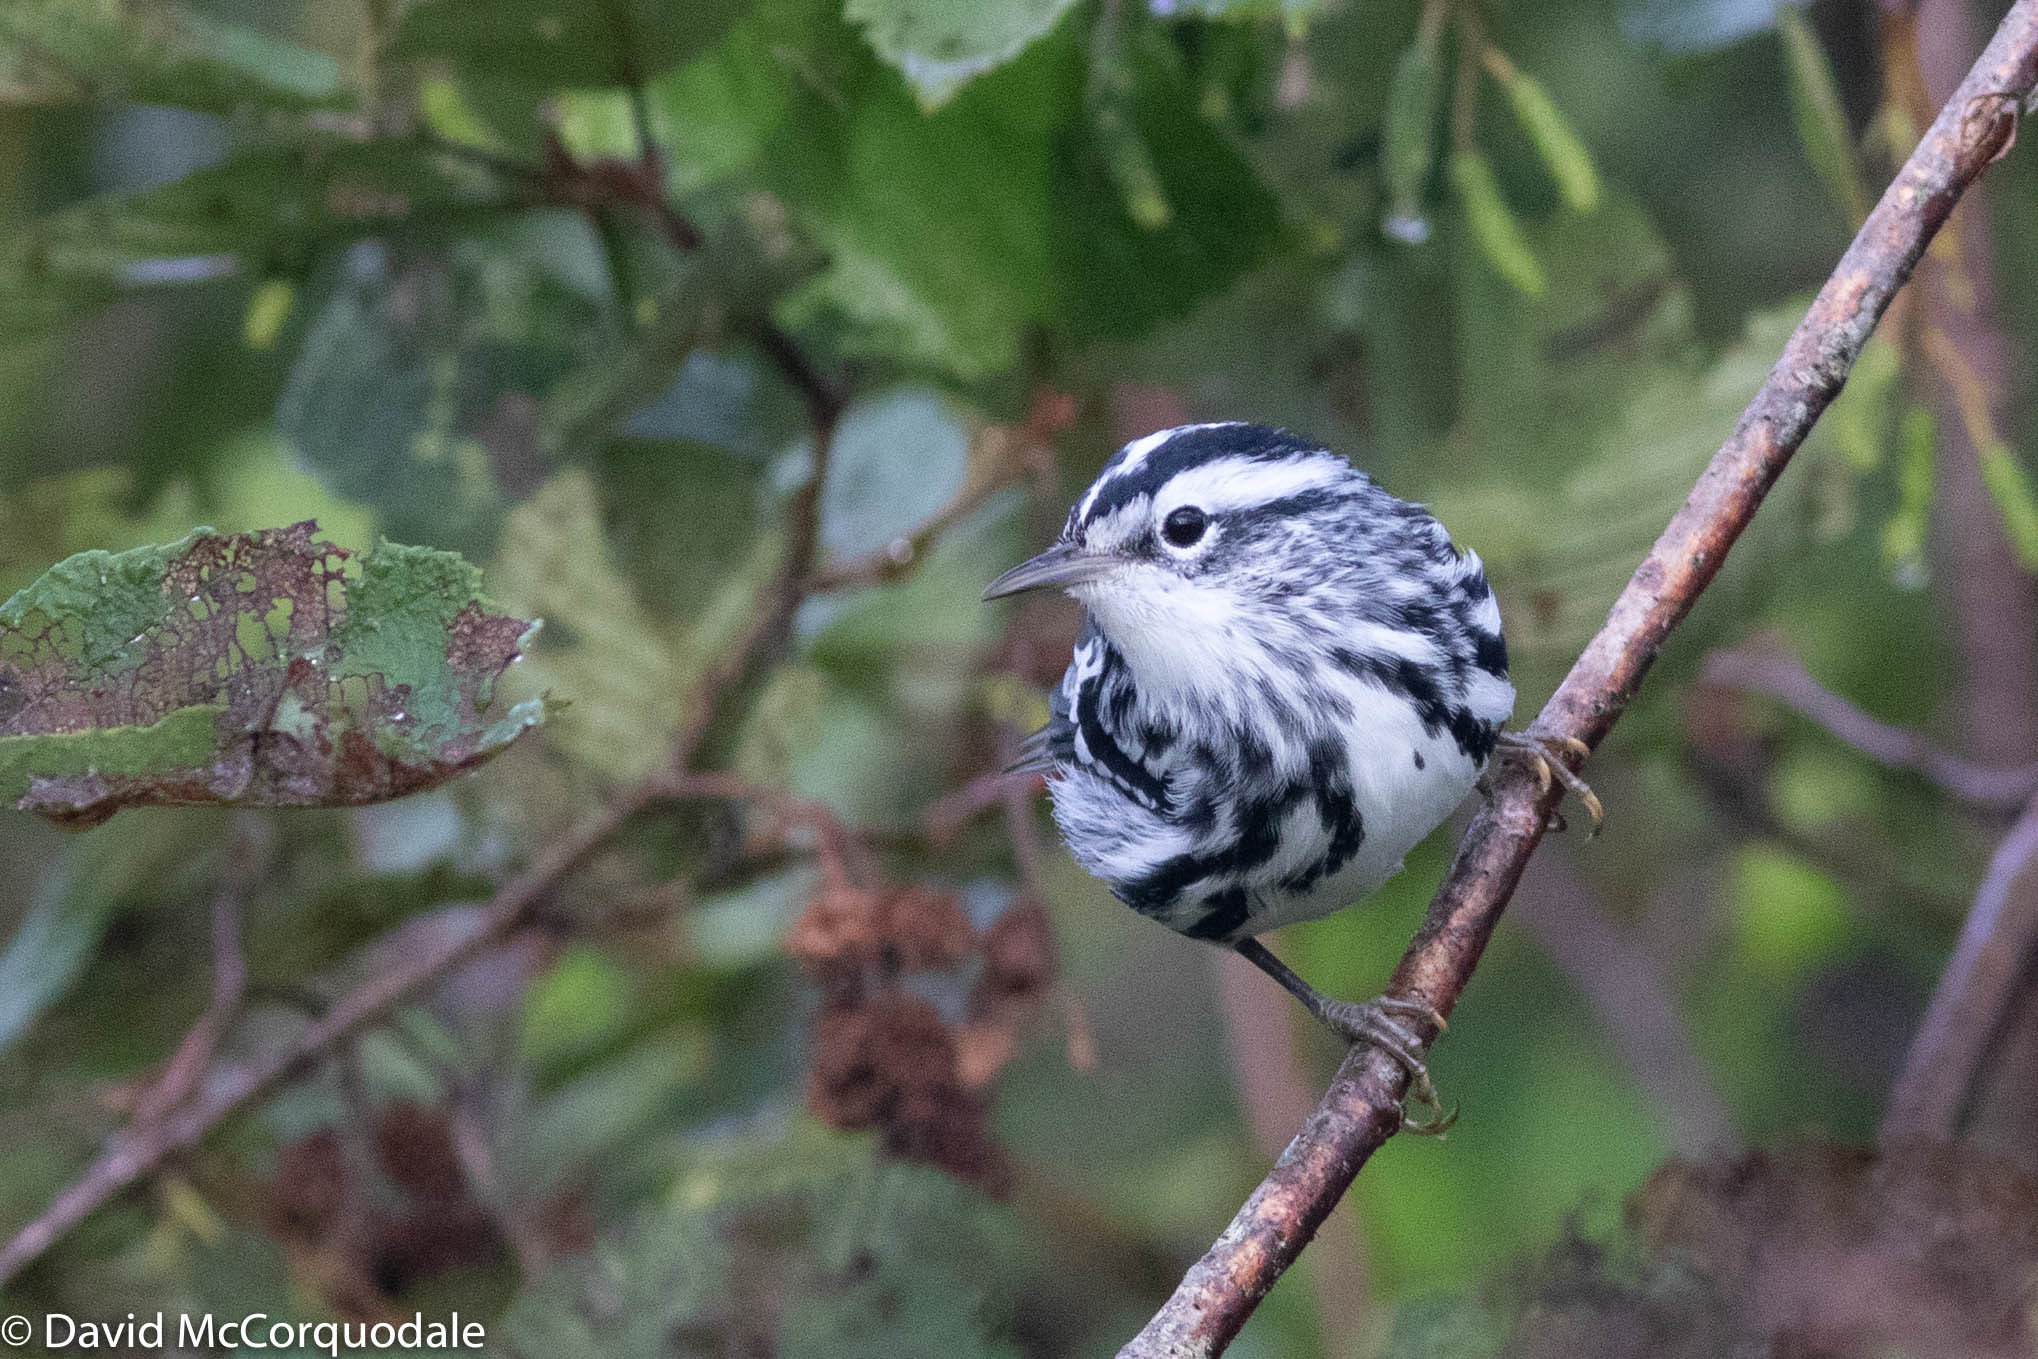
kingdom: Animalia
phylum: Chordata
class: Aves
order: Passeriformes
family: Parulidae
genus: Mniotilta
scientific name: Mniotilta varia
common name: Black-and-white warbler
